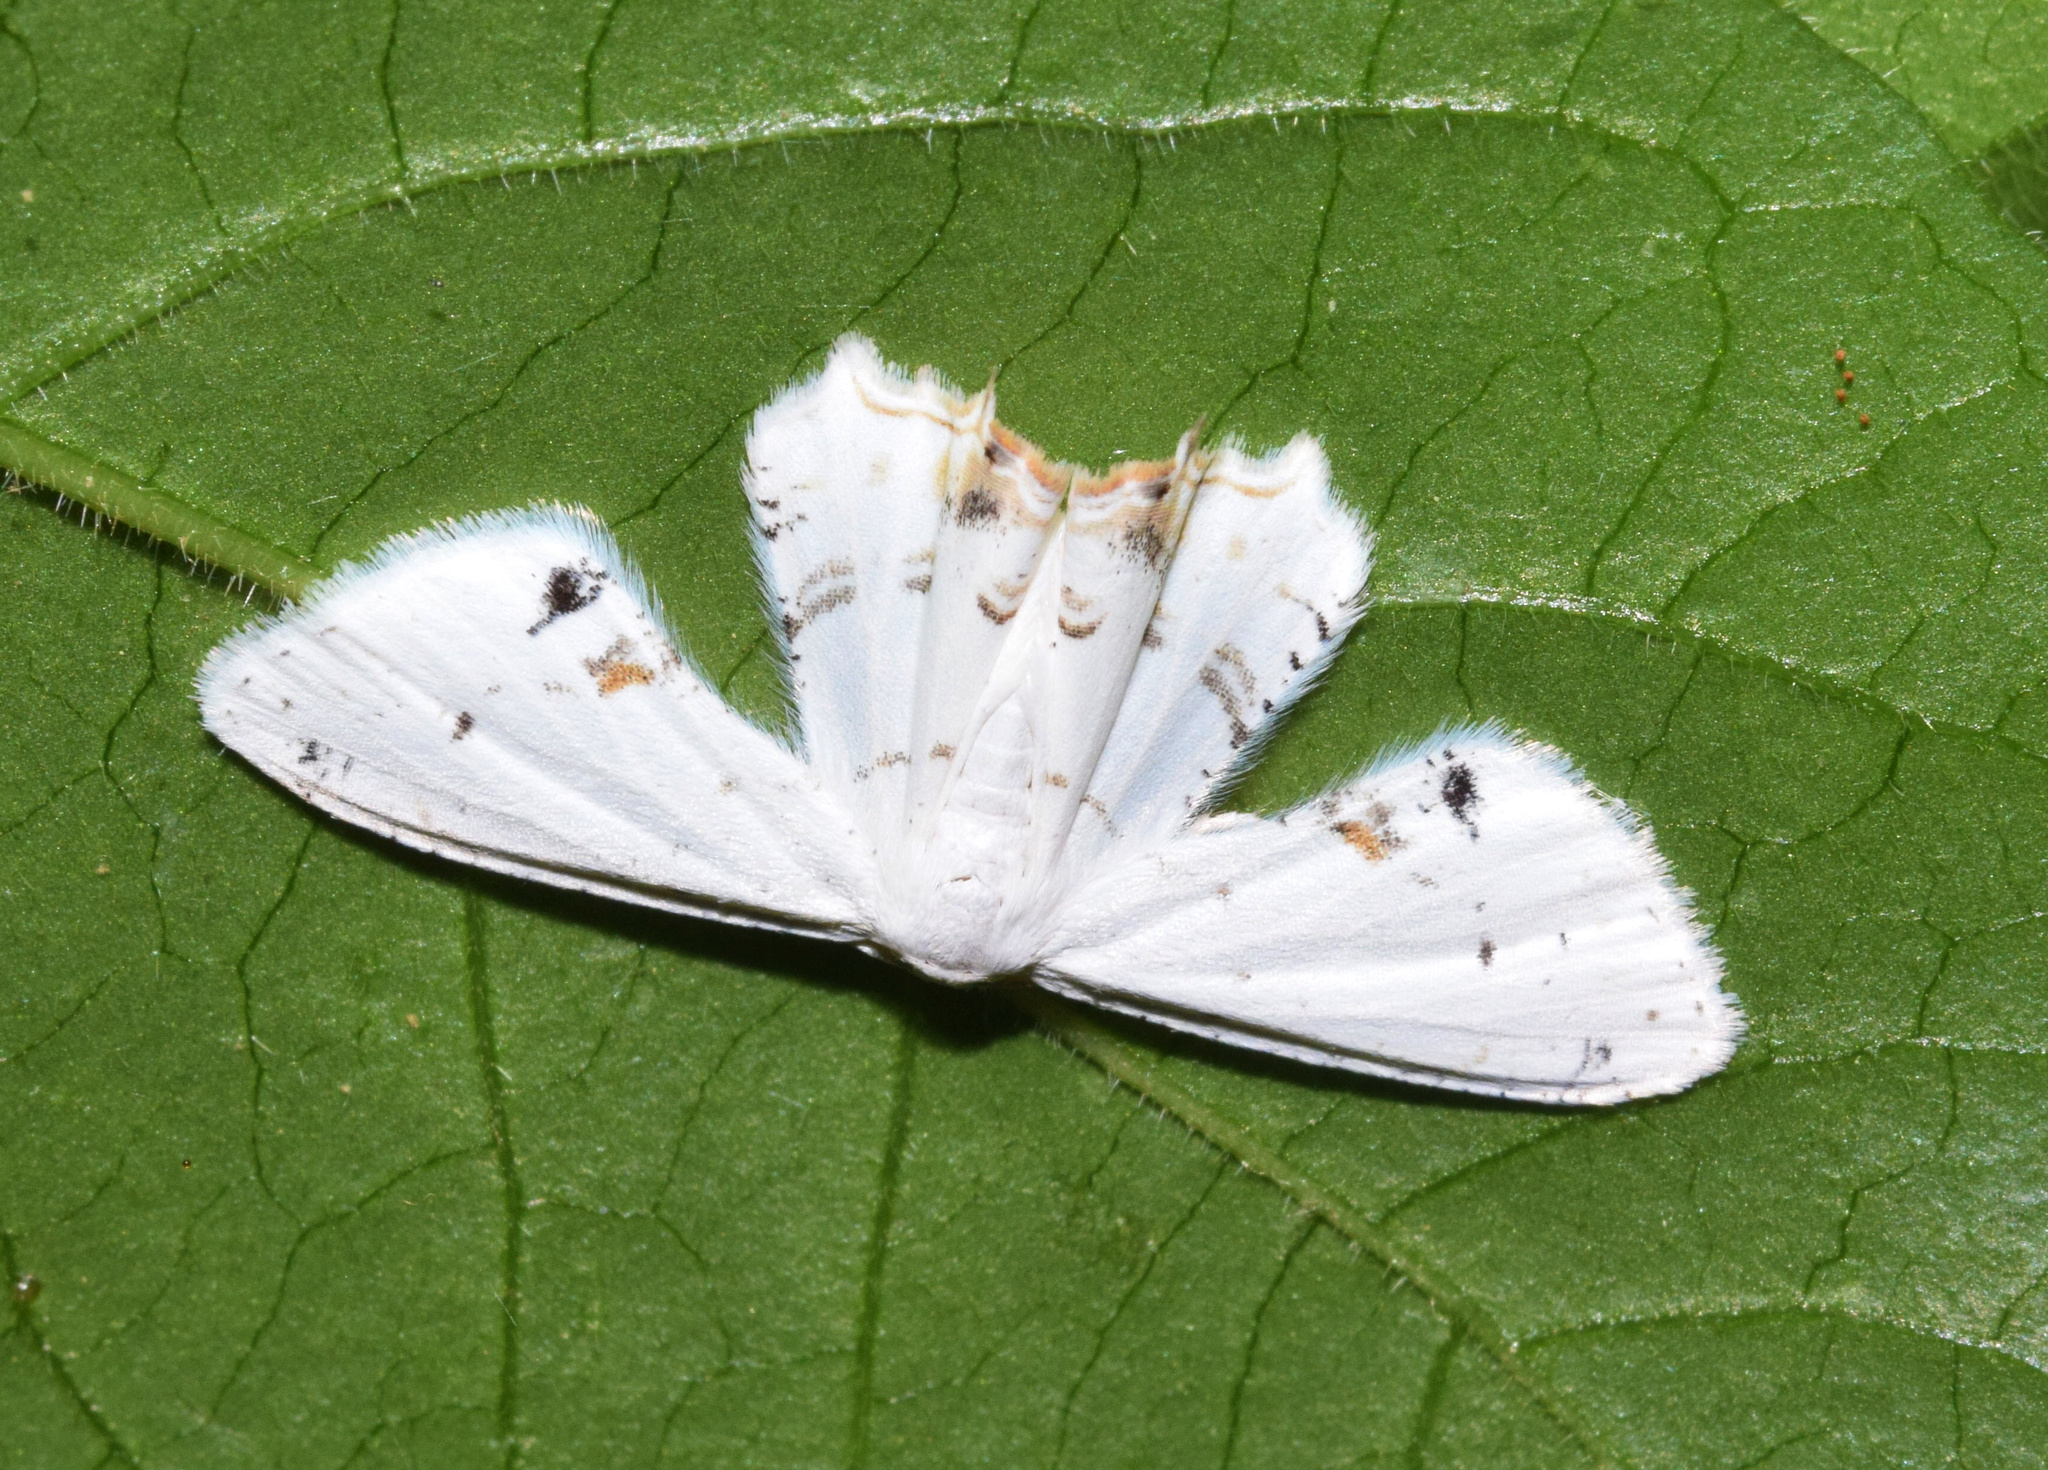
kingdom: Animalia
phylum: Arthropoda
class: Insecta
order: Lepidoptera
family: Uraniidae
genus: Monoplema
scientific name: Monoplema fumigera
